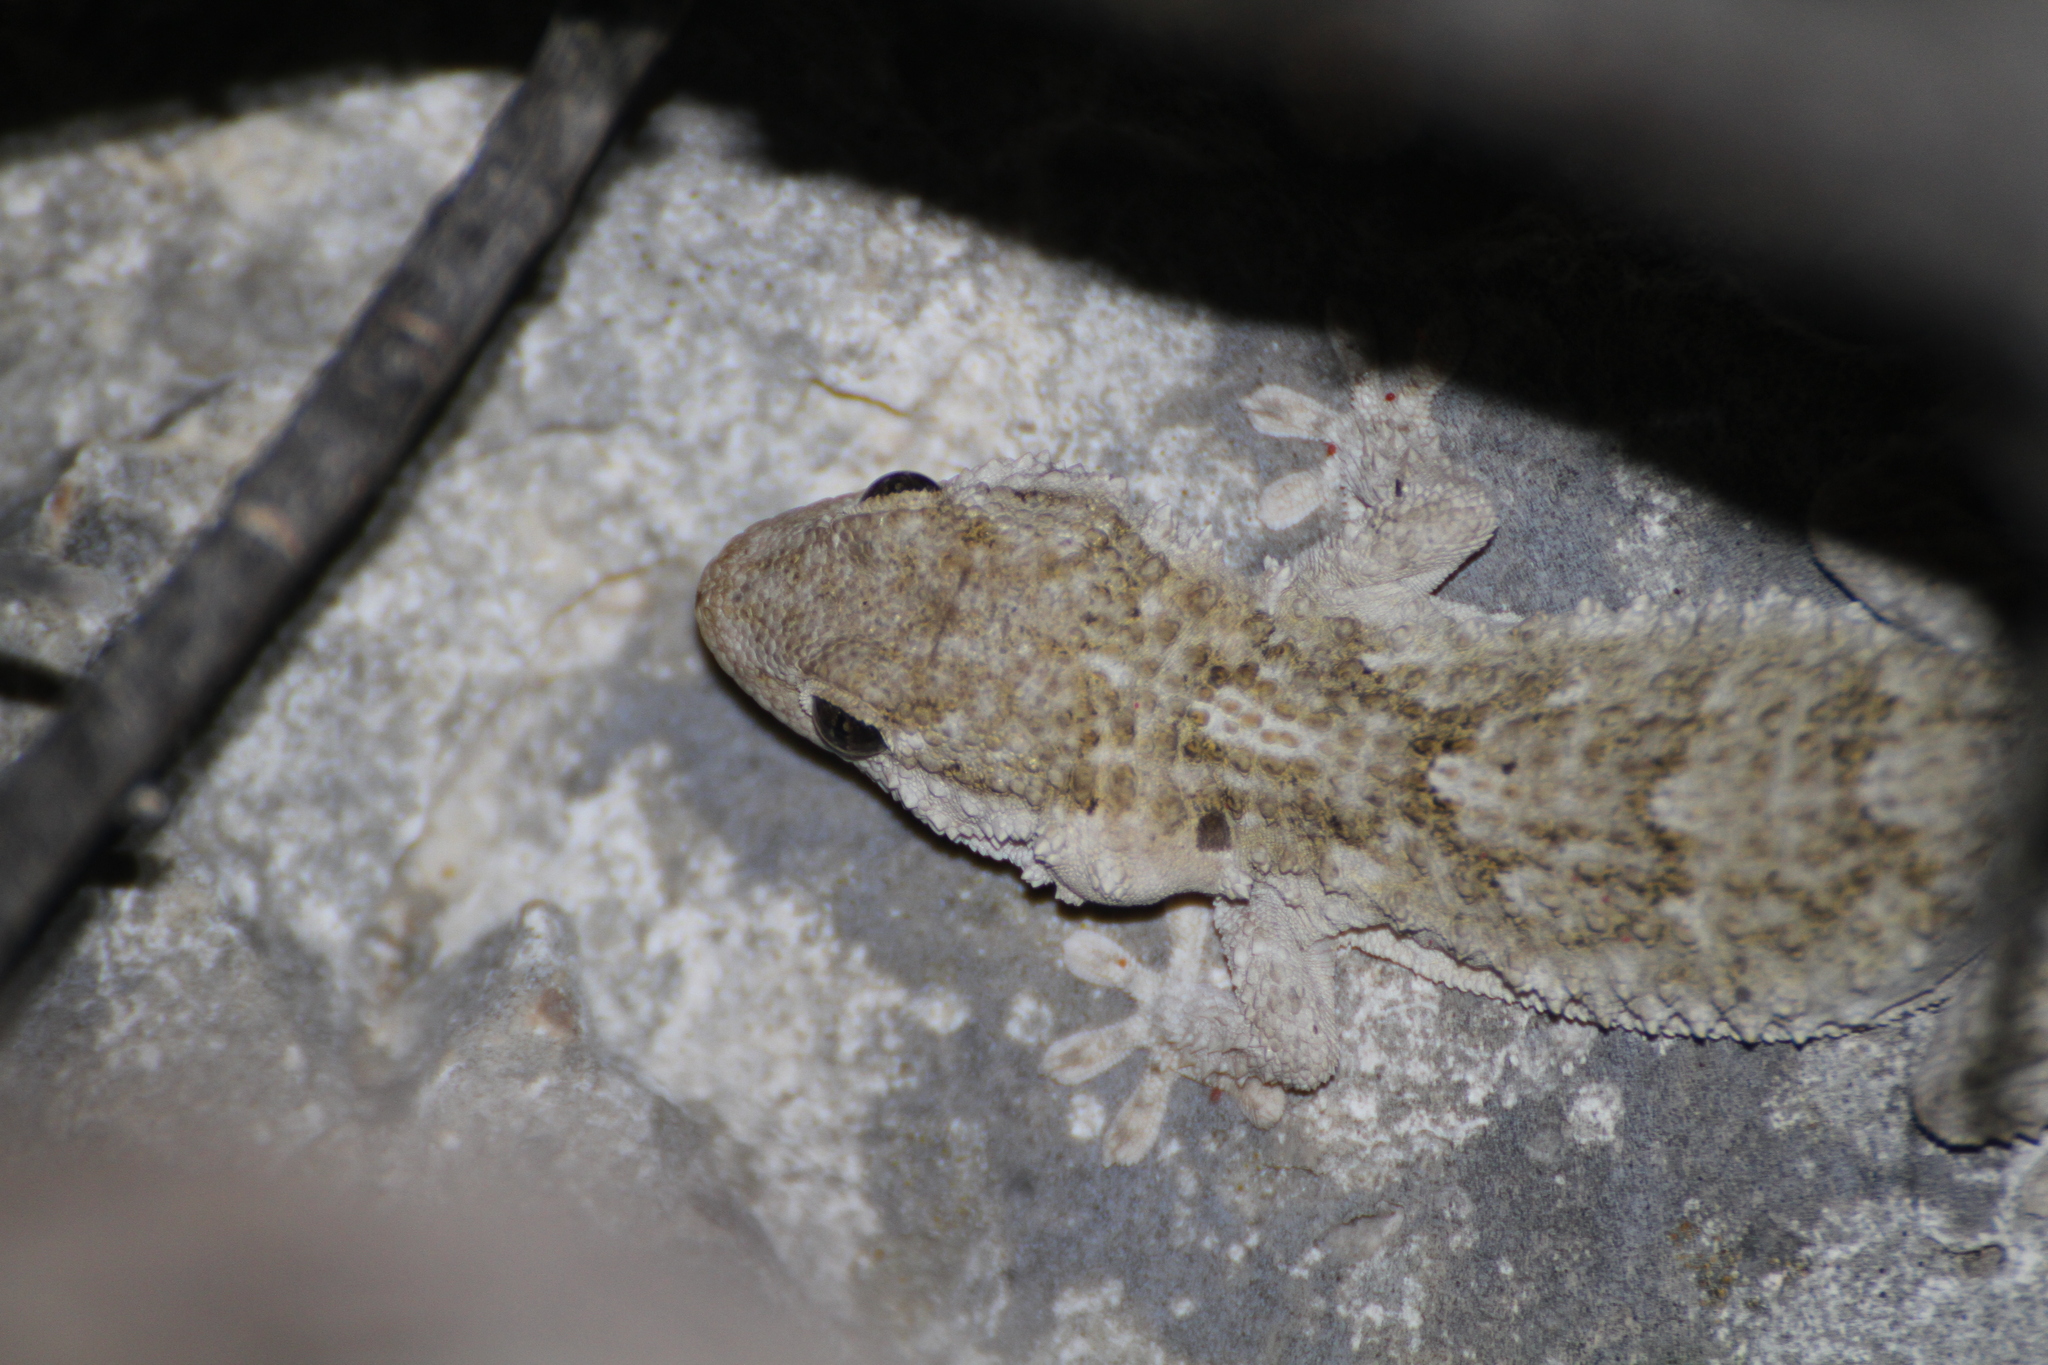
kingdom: Animalia
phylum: Chordata
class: Squamata
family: Phyllodactylidae
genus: Tarentola
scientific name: Tarentola mauritanica
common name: Moorish gecko
